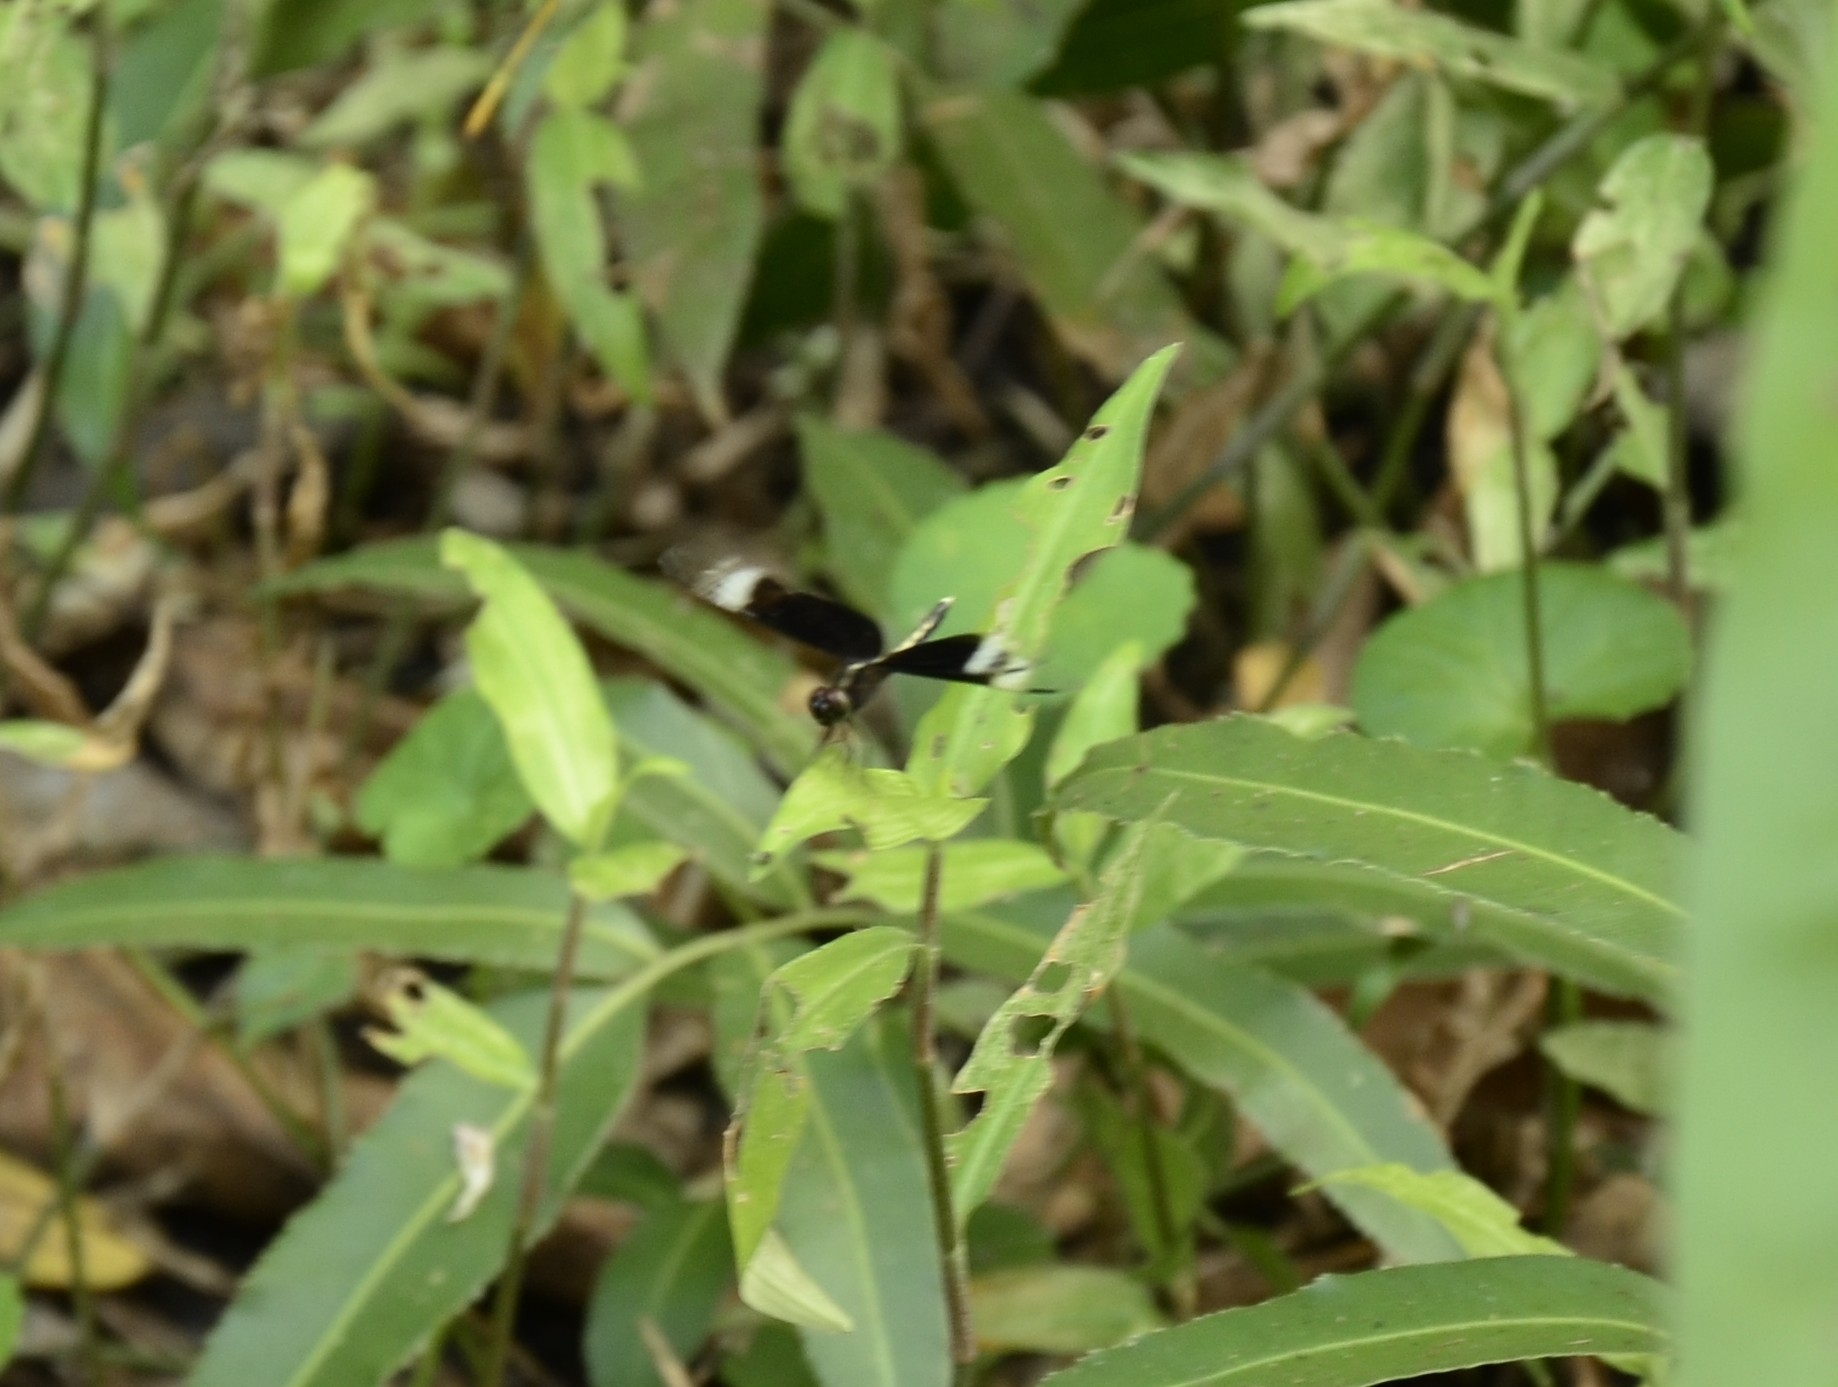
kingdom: Animalia
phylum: Arthropoda
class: Insecta
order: Odonata
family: Libellulidae
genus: Neurothemis
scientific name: Neurothemis tullia
